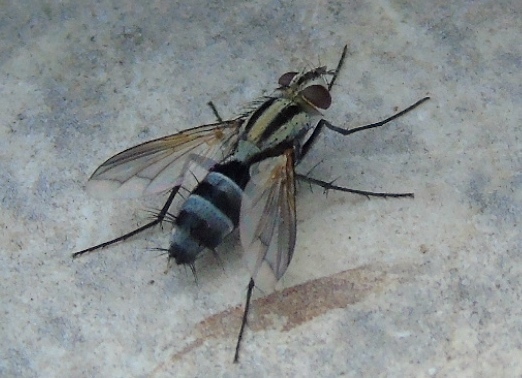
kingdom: Animalia
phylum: Arthropoda
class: Insecta
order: Diptera
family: Dexiidae
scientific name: Dexiidae
